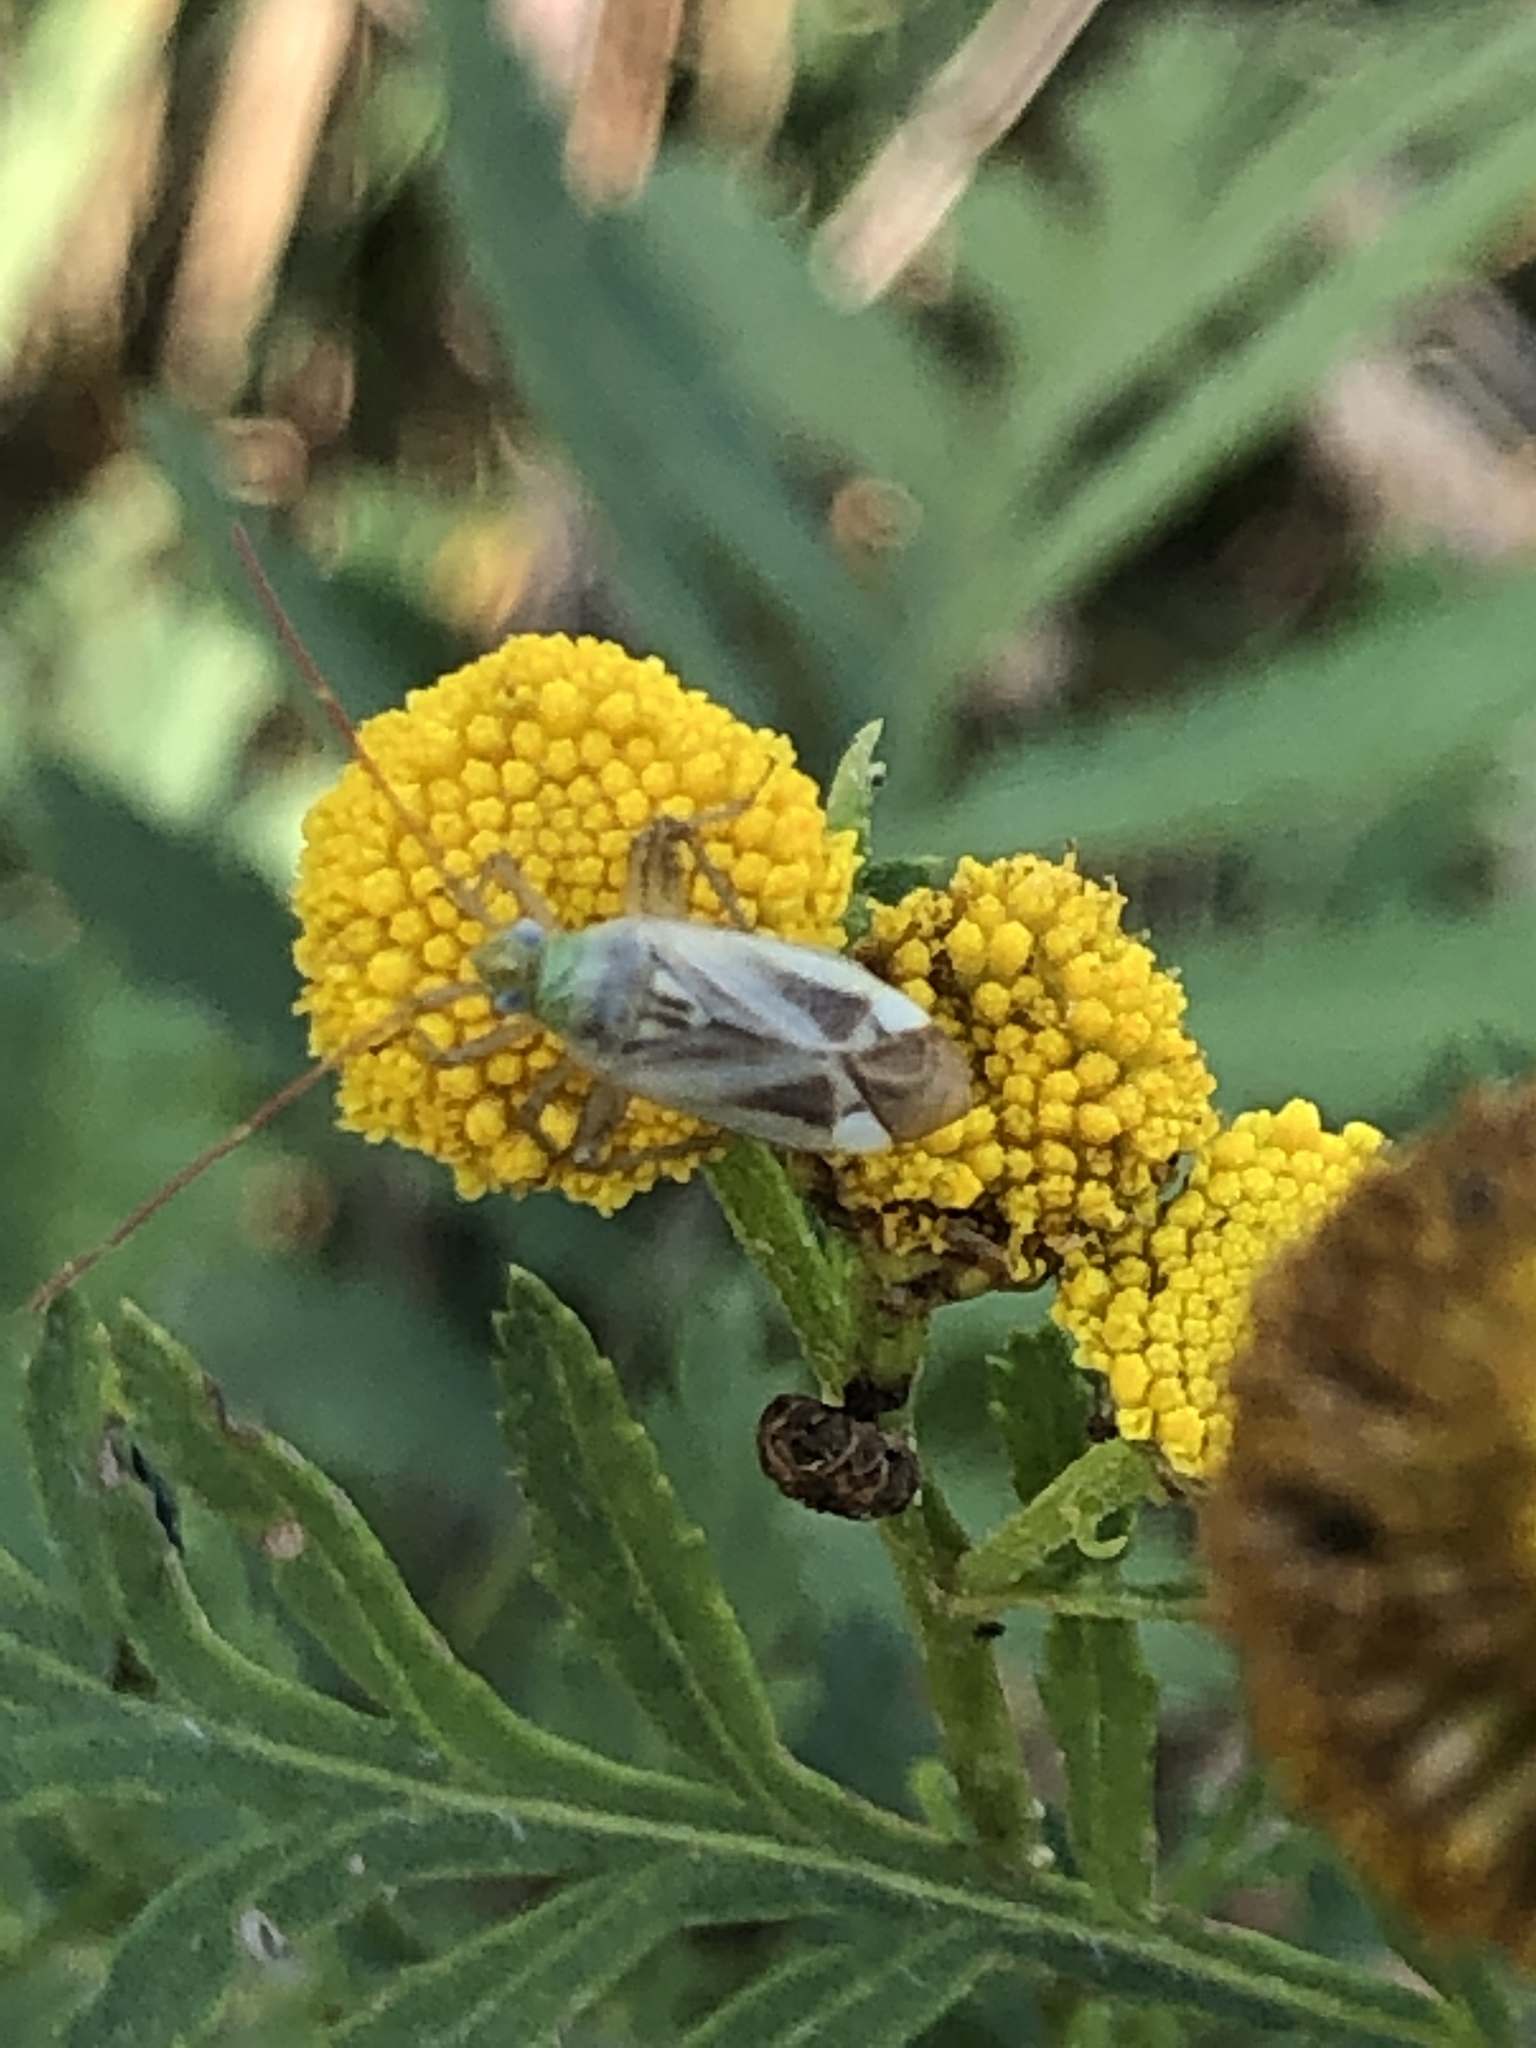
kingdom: Animalia
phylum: Arthropoda
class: Insecta
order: Hemiptera
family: Miridae
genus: Adelphocoris
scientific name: Adelphocoris lineolatus
